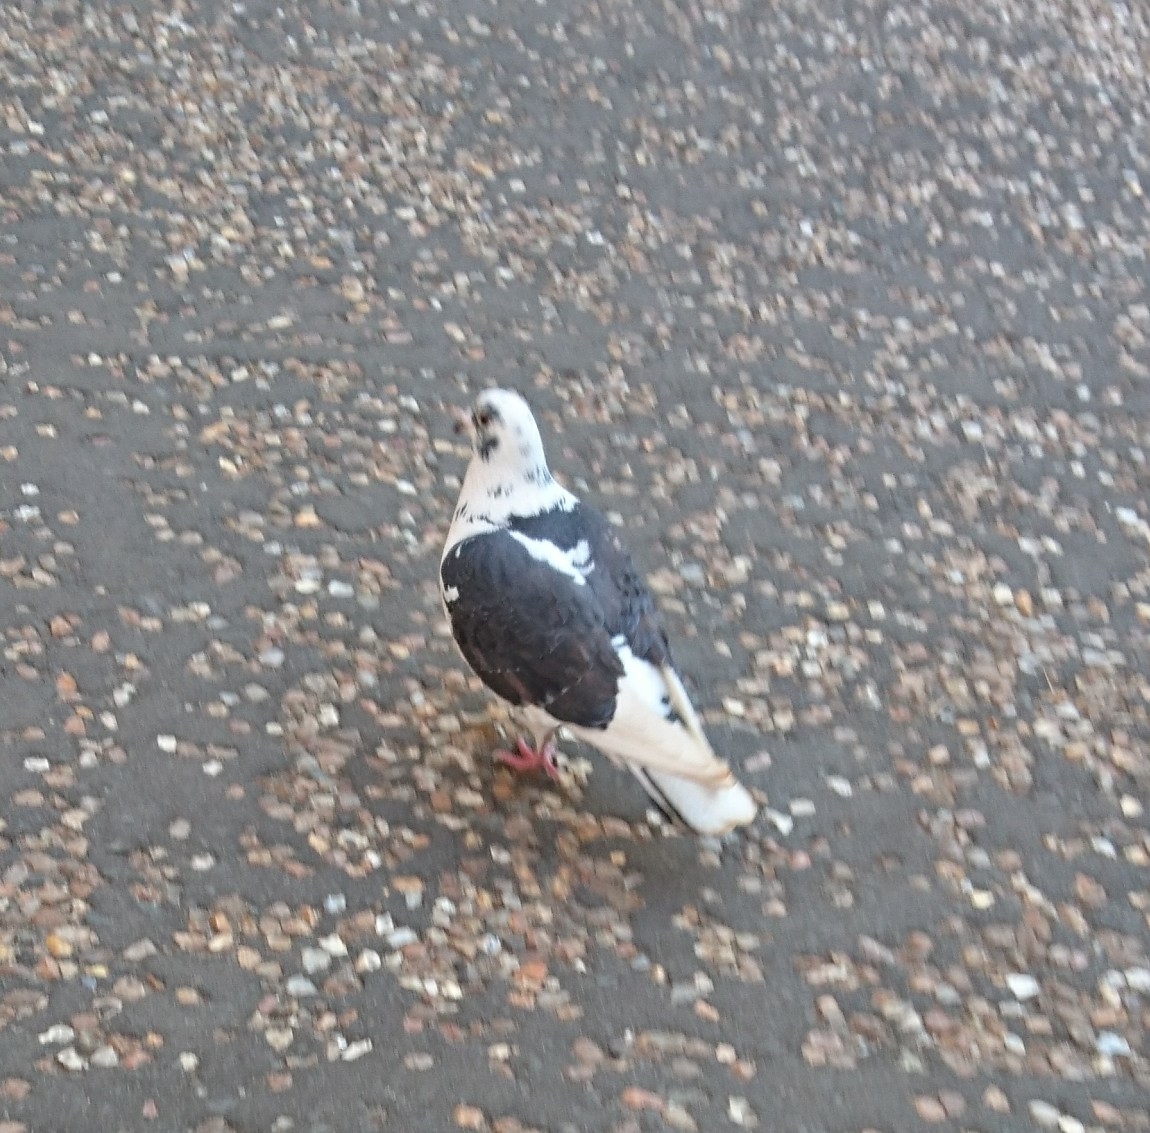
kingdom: Animalia
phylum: Chordata
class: Aves
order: Columbiformes
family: Columbidae
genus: Columba
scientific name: Columba livia
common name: Rock pigeon
